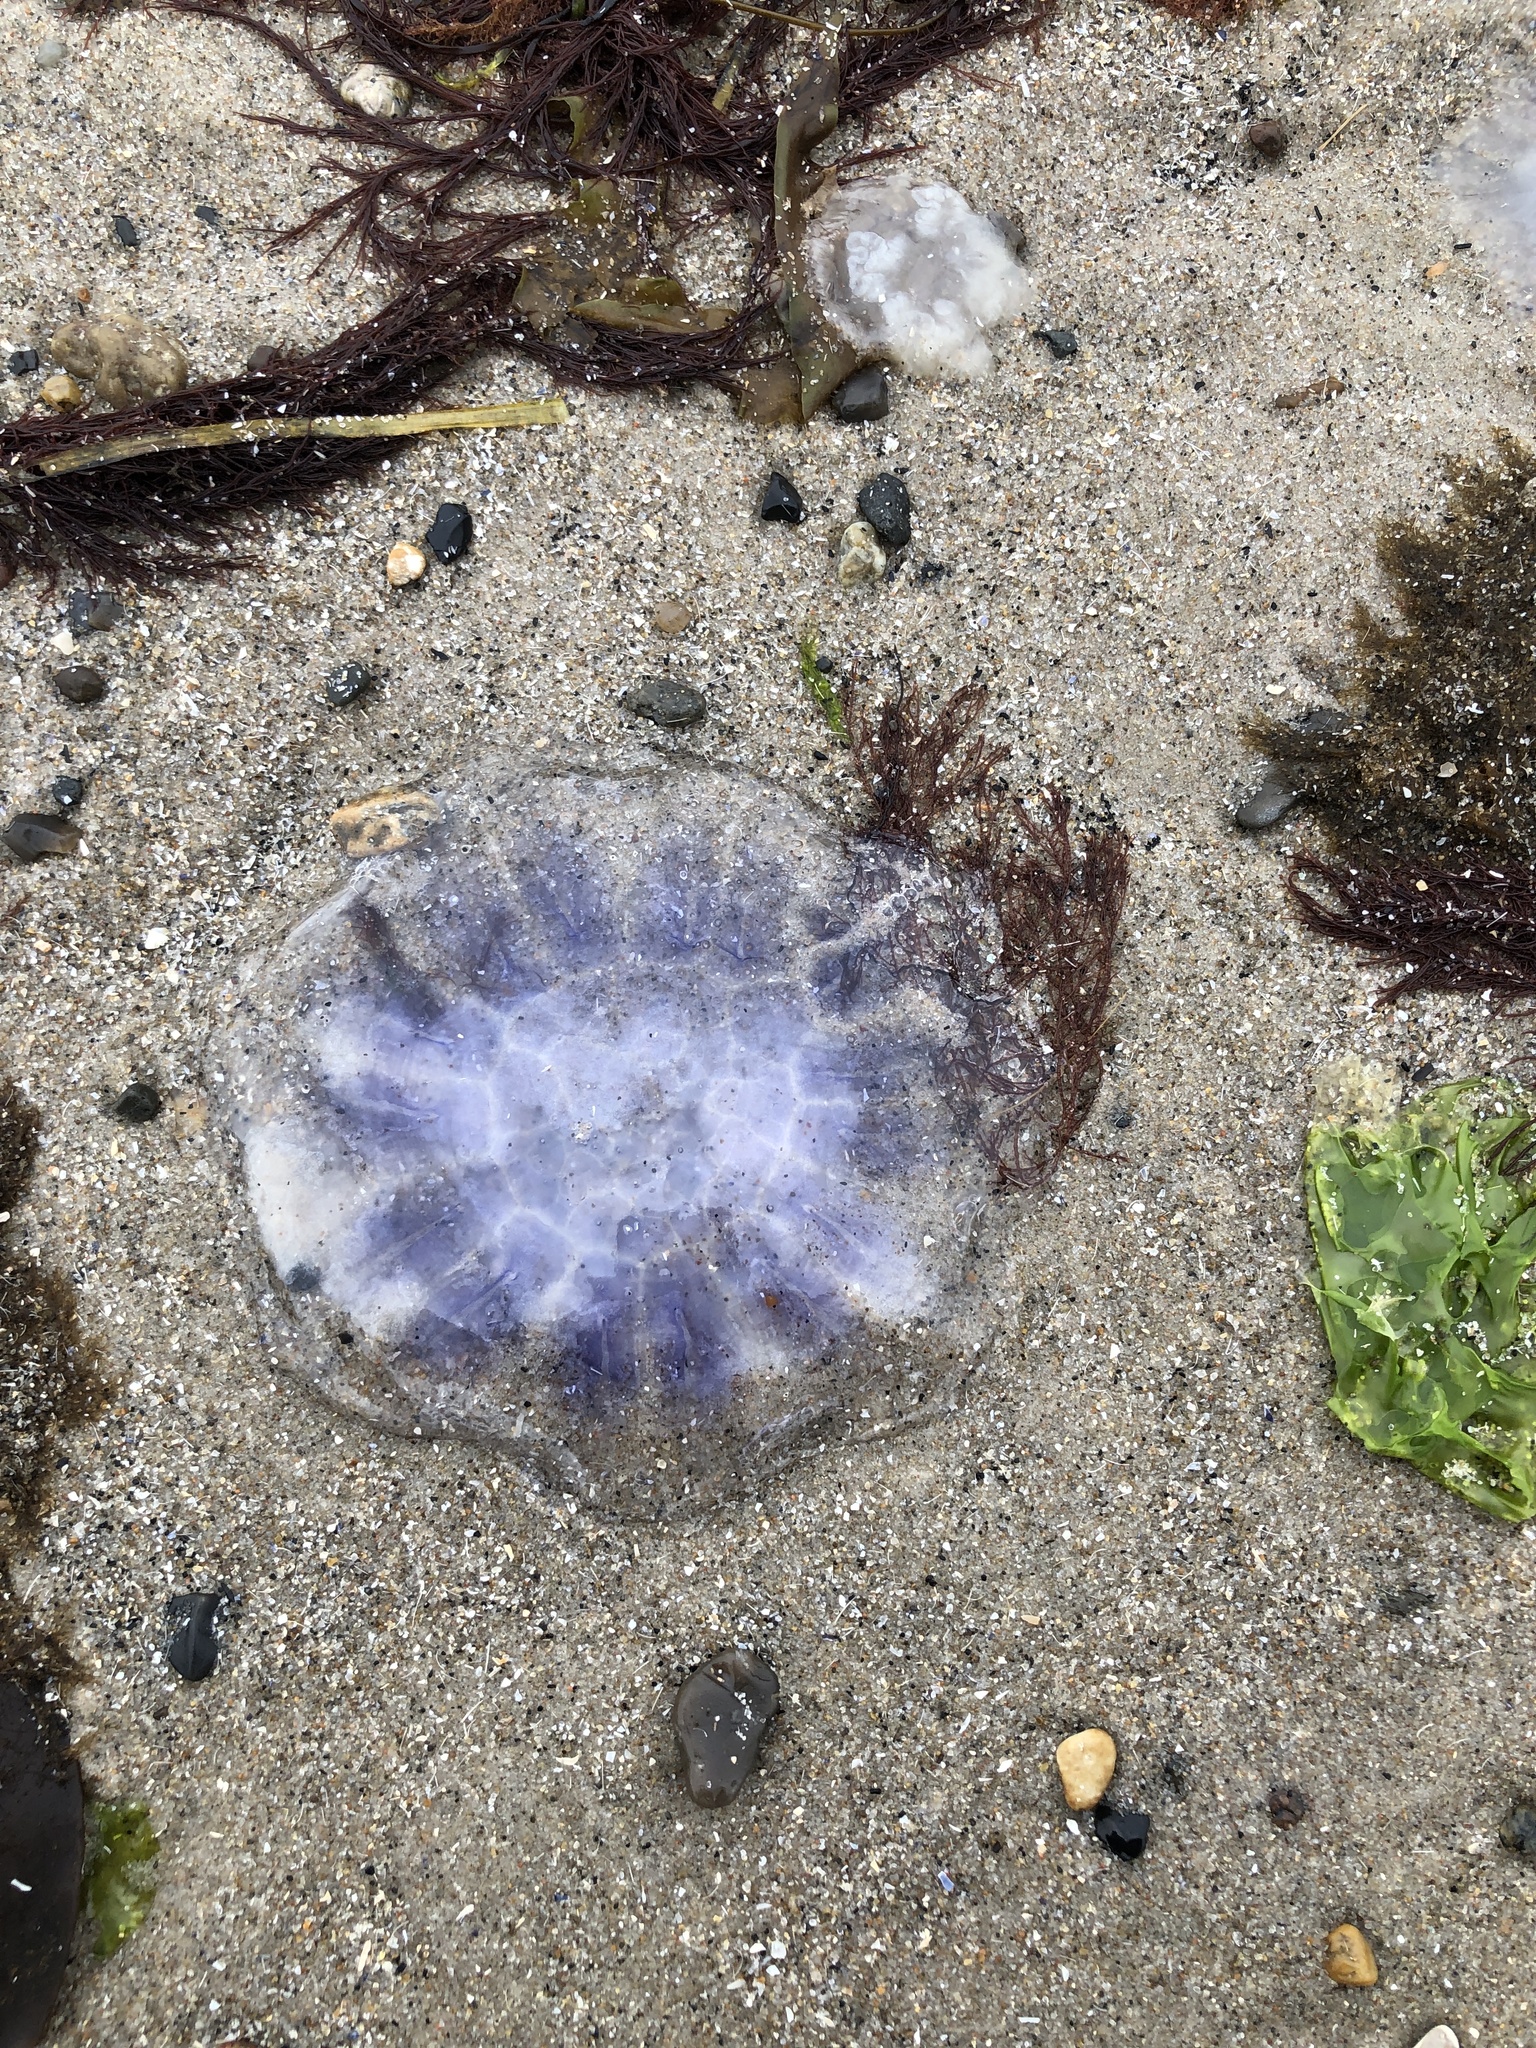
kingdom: Animalia
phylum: Cnidaria
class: Scyphozoa
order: Semaeostomeae
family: Cyaneidae
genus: Cyanea
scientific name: Cyanea lamarckii
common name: Blue jellyfish
